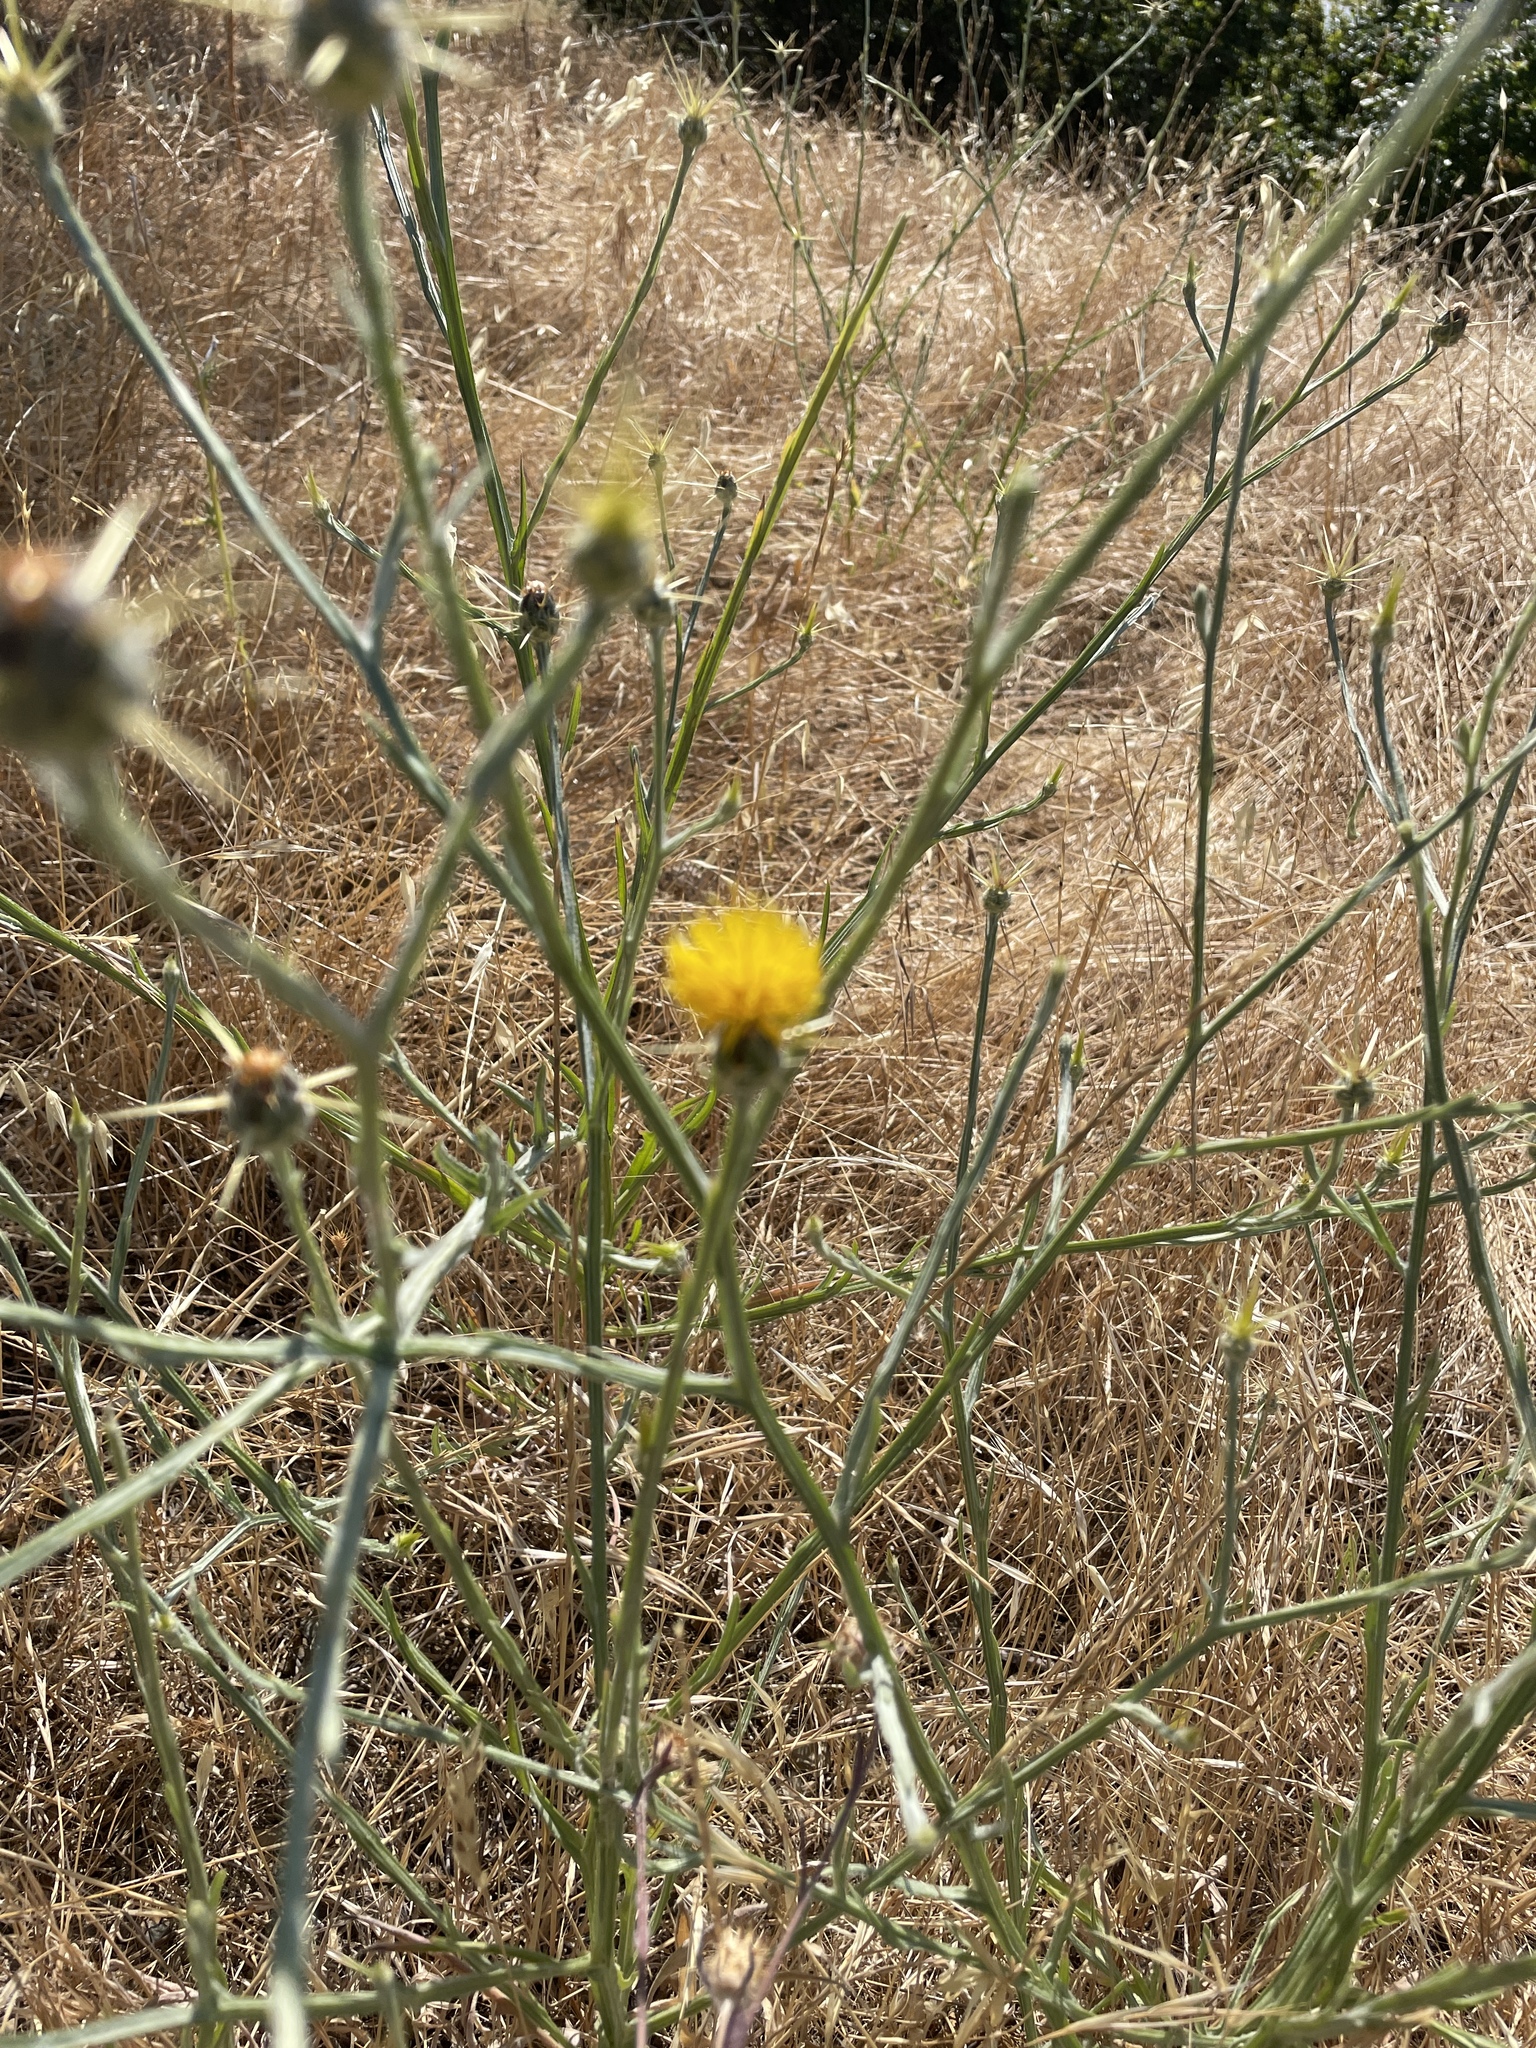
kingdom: Plantae
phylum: Tracheophyta
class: Magnoliopsida
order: Asterales
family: Asteraceae
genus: Centaurea
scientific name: Centaurea solstitialis
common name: Yellow star-thistle
